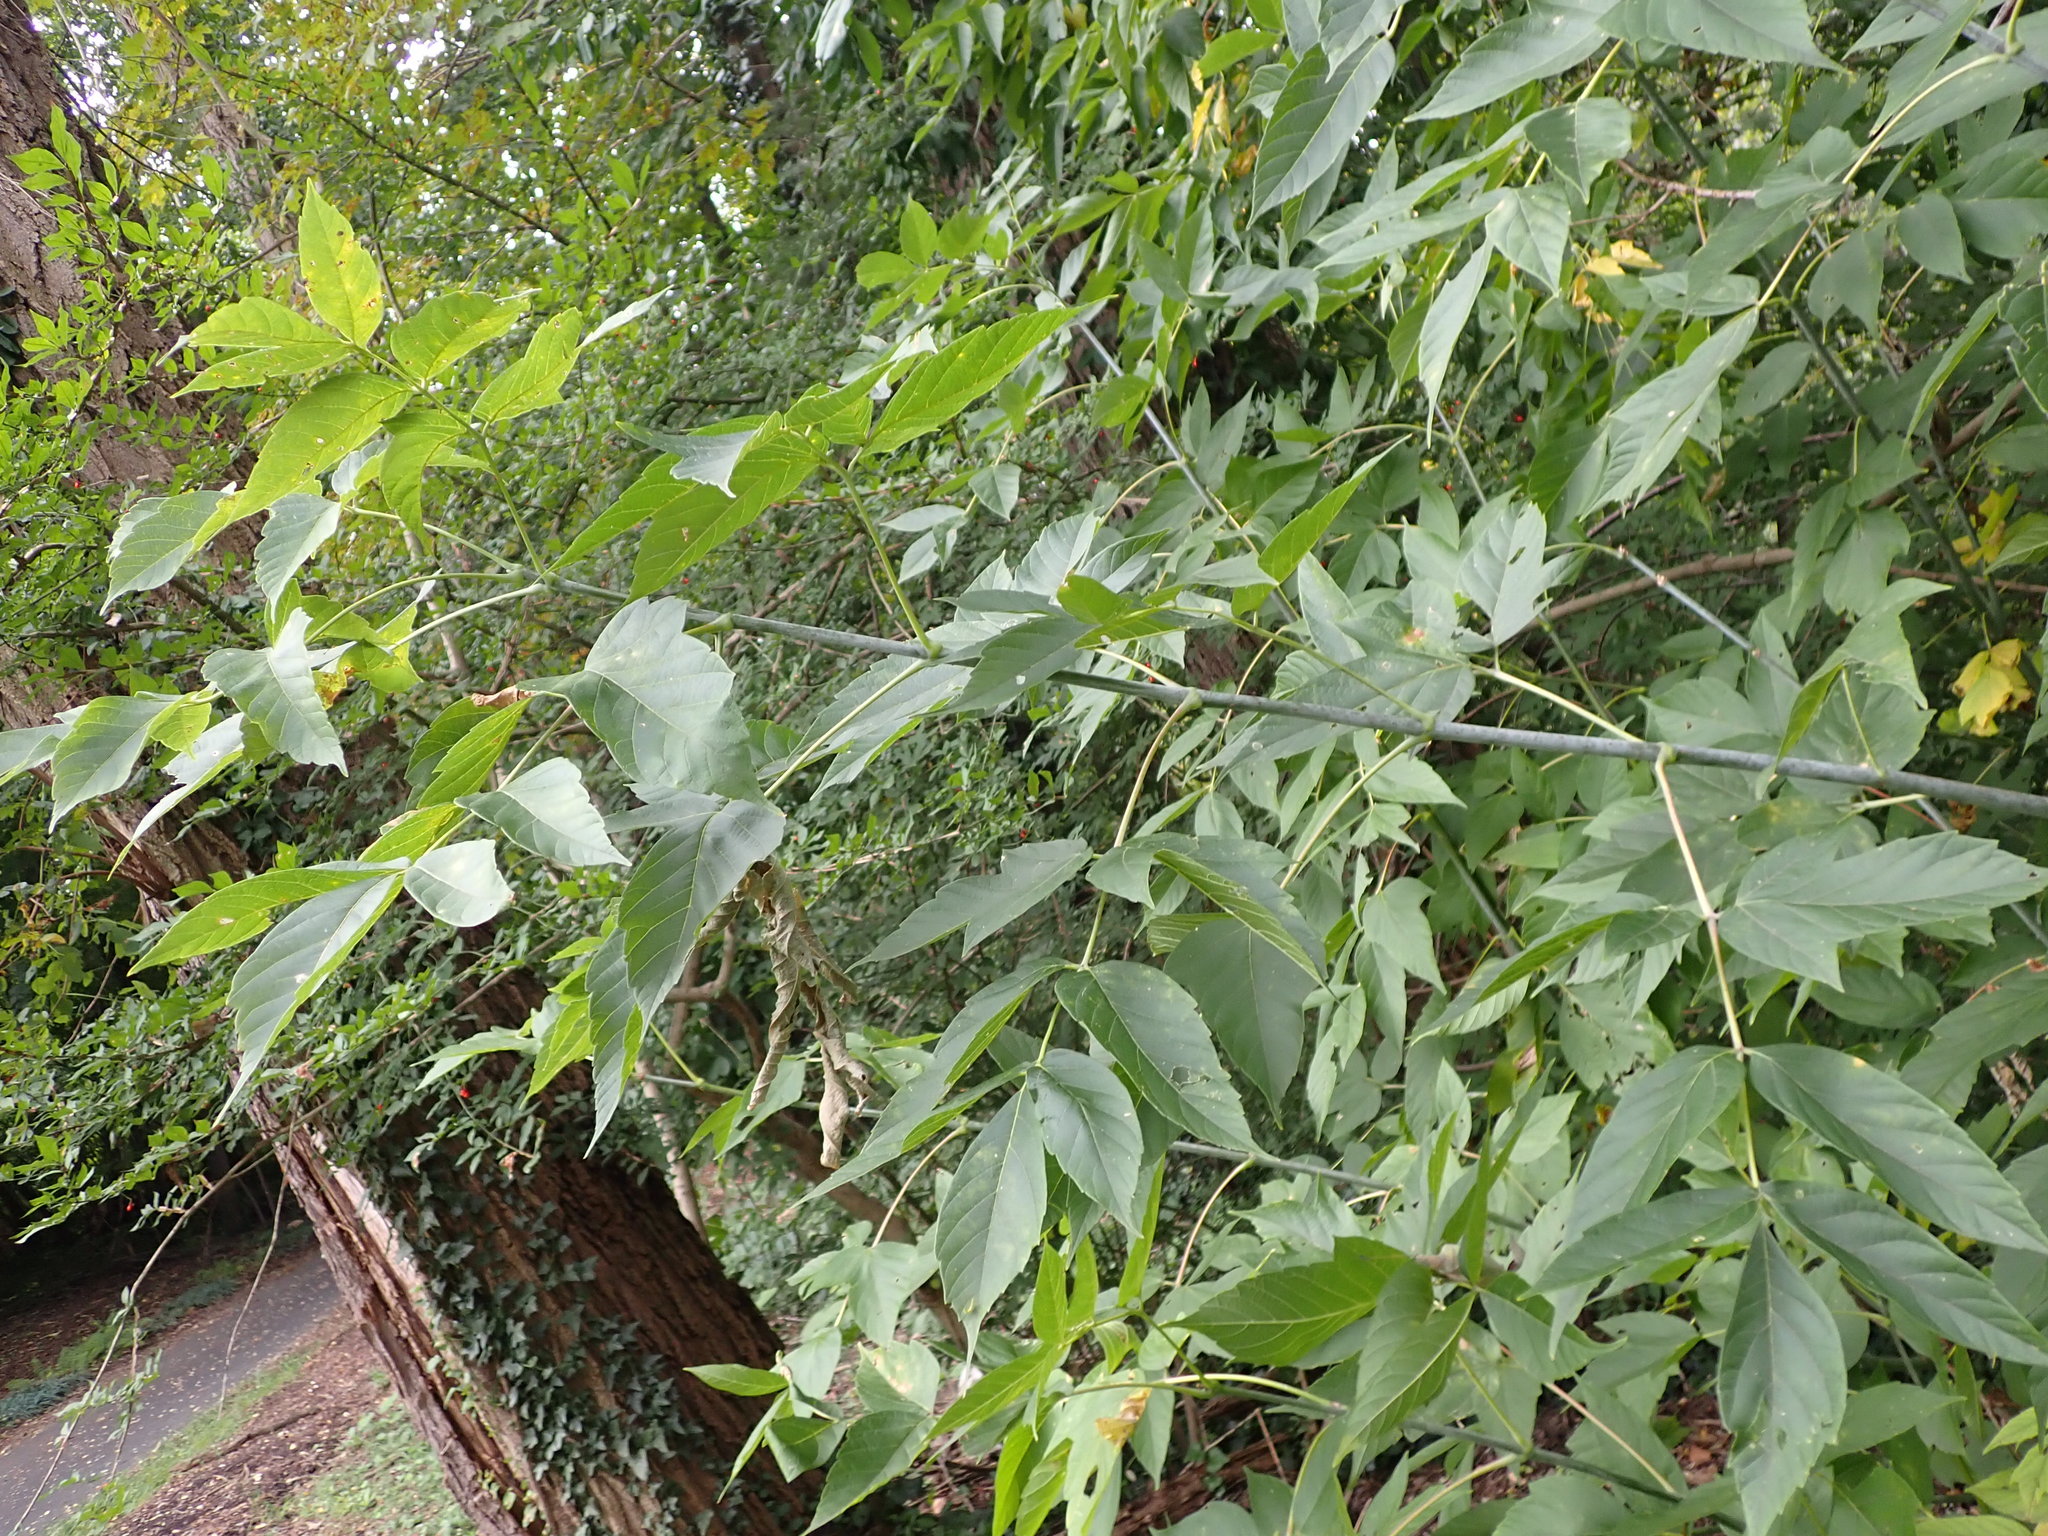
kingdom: Plantae
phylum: Tracheophyta
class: Magnoliopsida
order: Sapindales
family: Sapindaceae
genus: Acer
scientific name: Acer negundo
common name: Ashleaf maple
